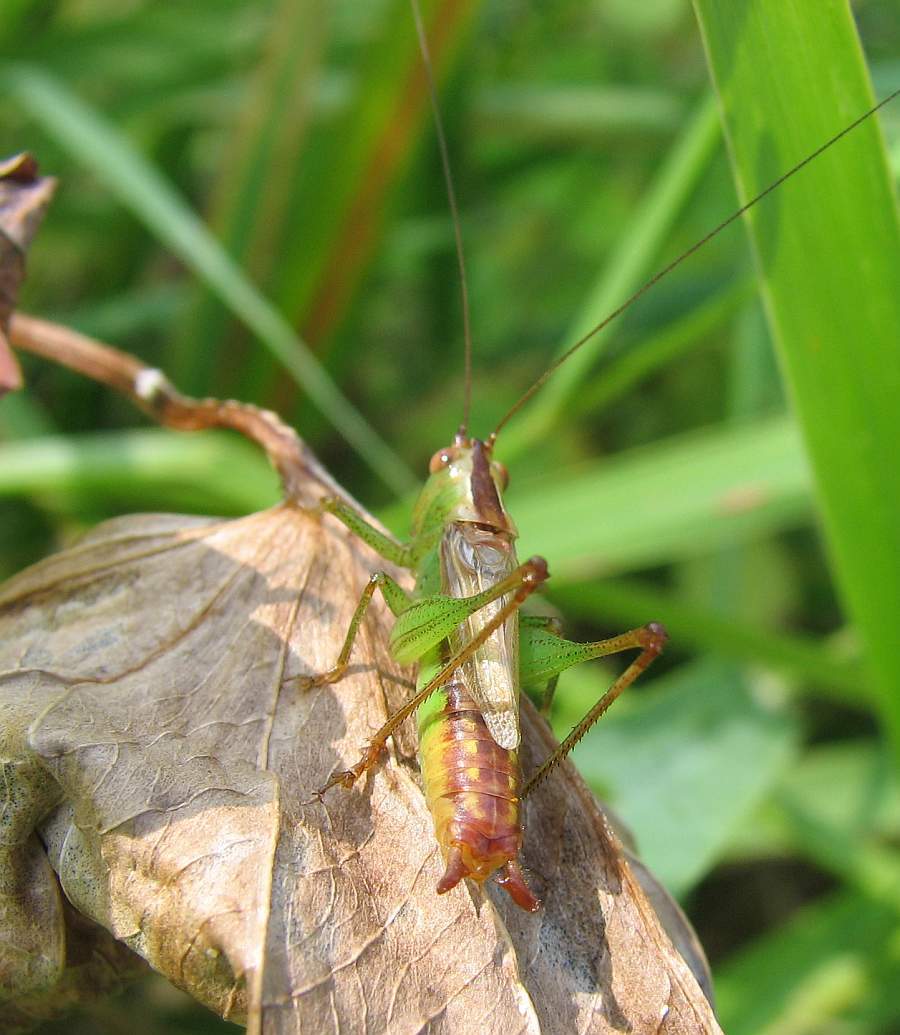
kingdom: Animalia
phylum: Arthropoda
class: Insecta
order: Orthoptera
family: Tettigoniidae
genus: Conocephalus
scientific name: Conocephalus brevipennis
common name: Short-winged meadow katydid
